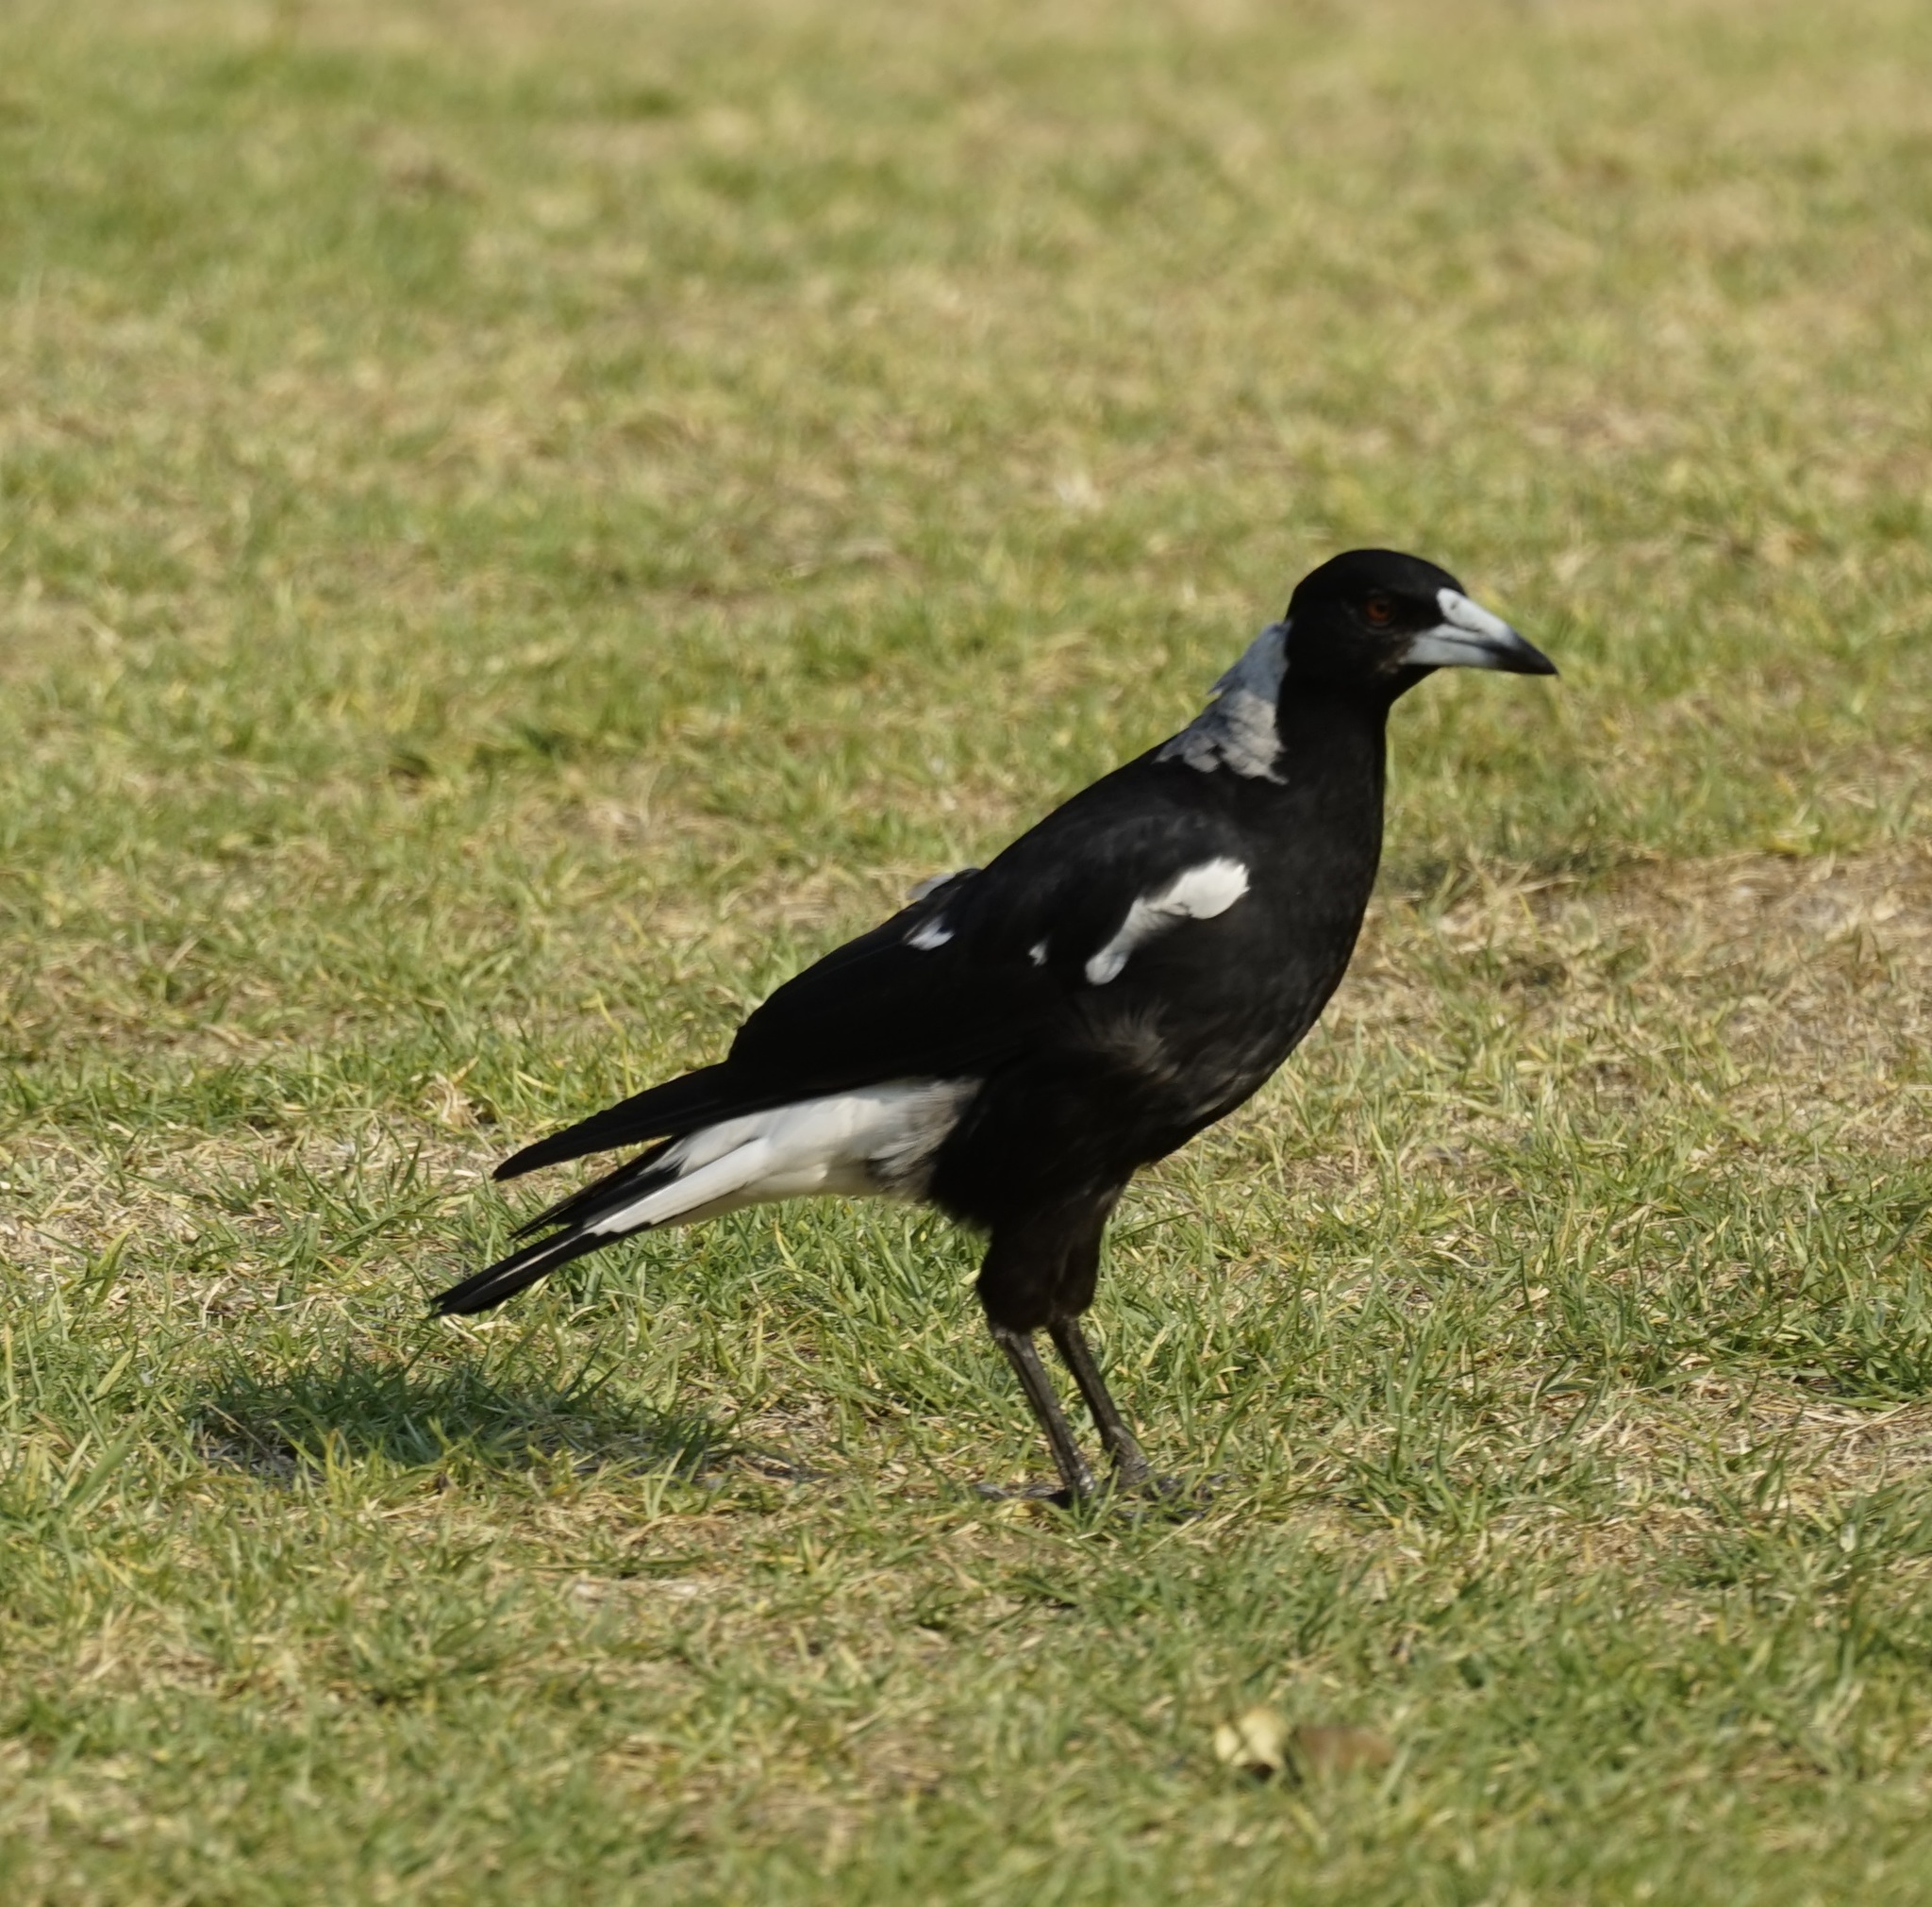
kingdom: Animalia
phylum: Chordata
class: Aves
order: Passeriformes
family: Cracticidae
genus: Gymnorhina
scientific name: Gymnorhina tibicen
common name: Australian magpie
